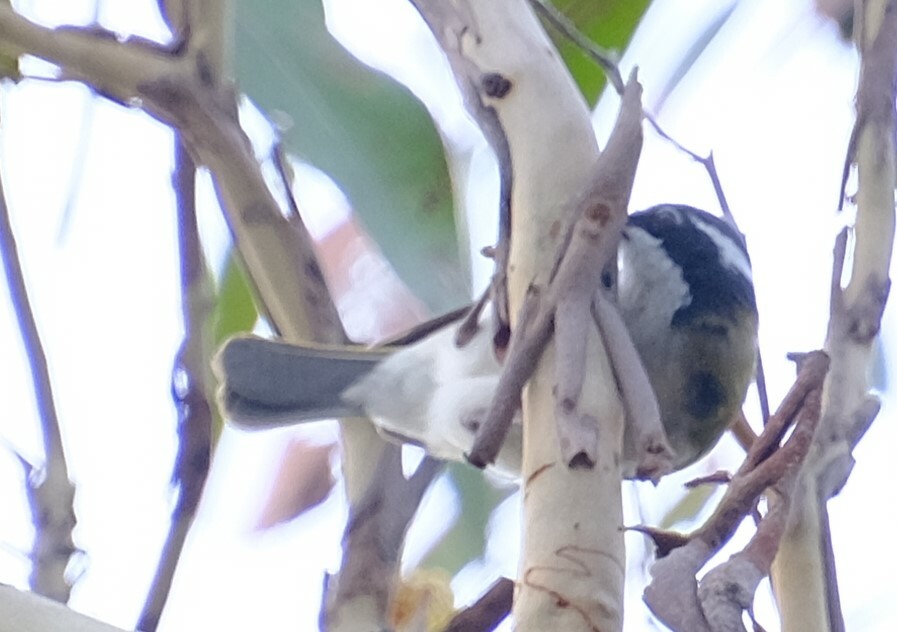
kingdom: Animalia
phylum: Chordata
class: Aves
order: Passeriformes
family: Meliphagidae
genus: Melithreptus
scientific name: Melithreptus albogularis
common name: White-throated honeyeater
